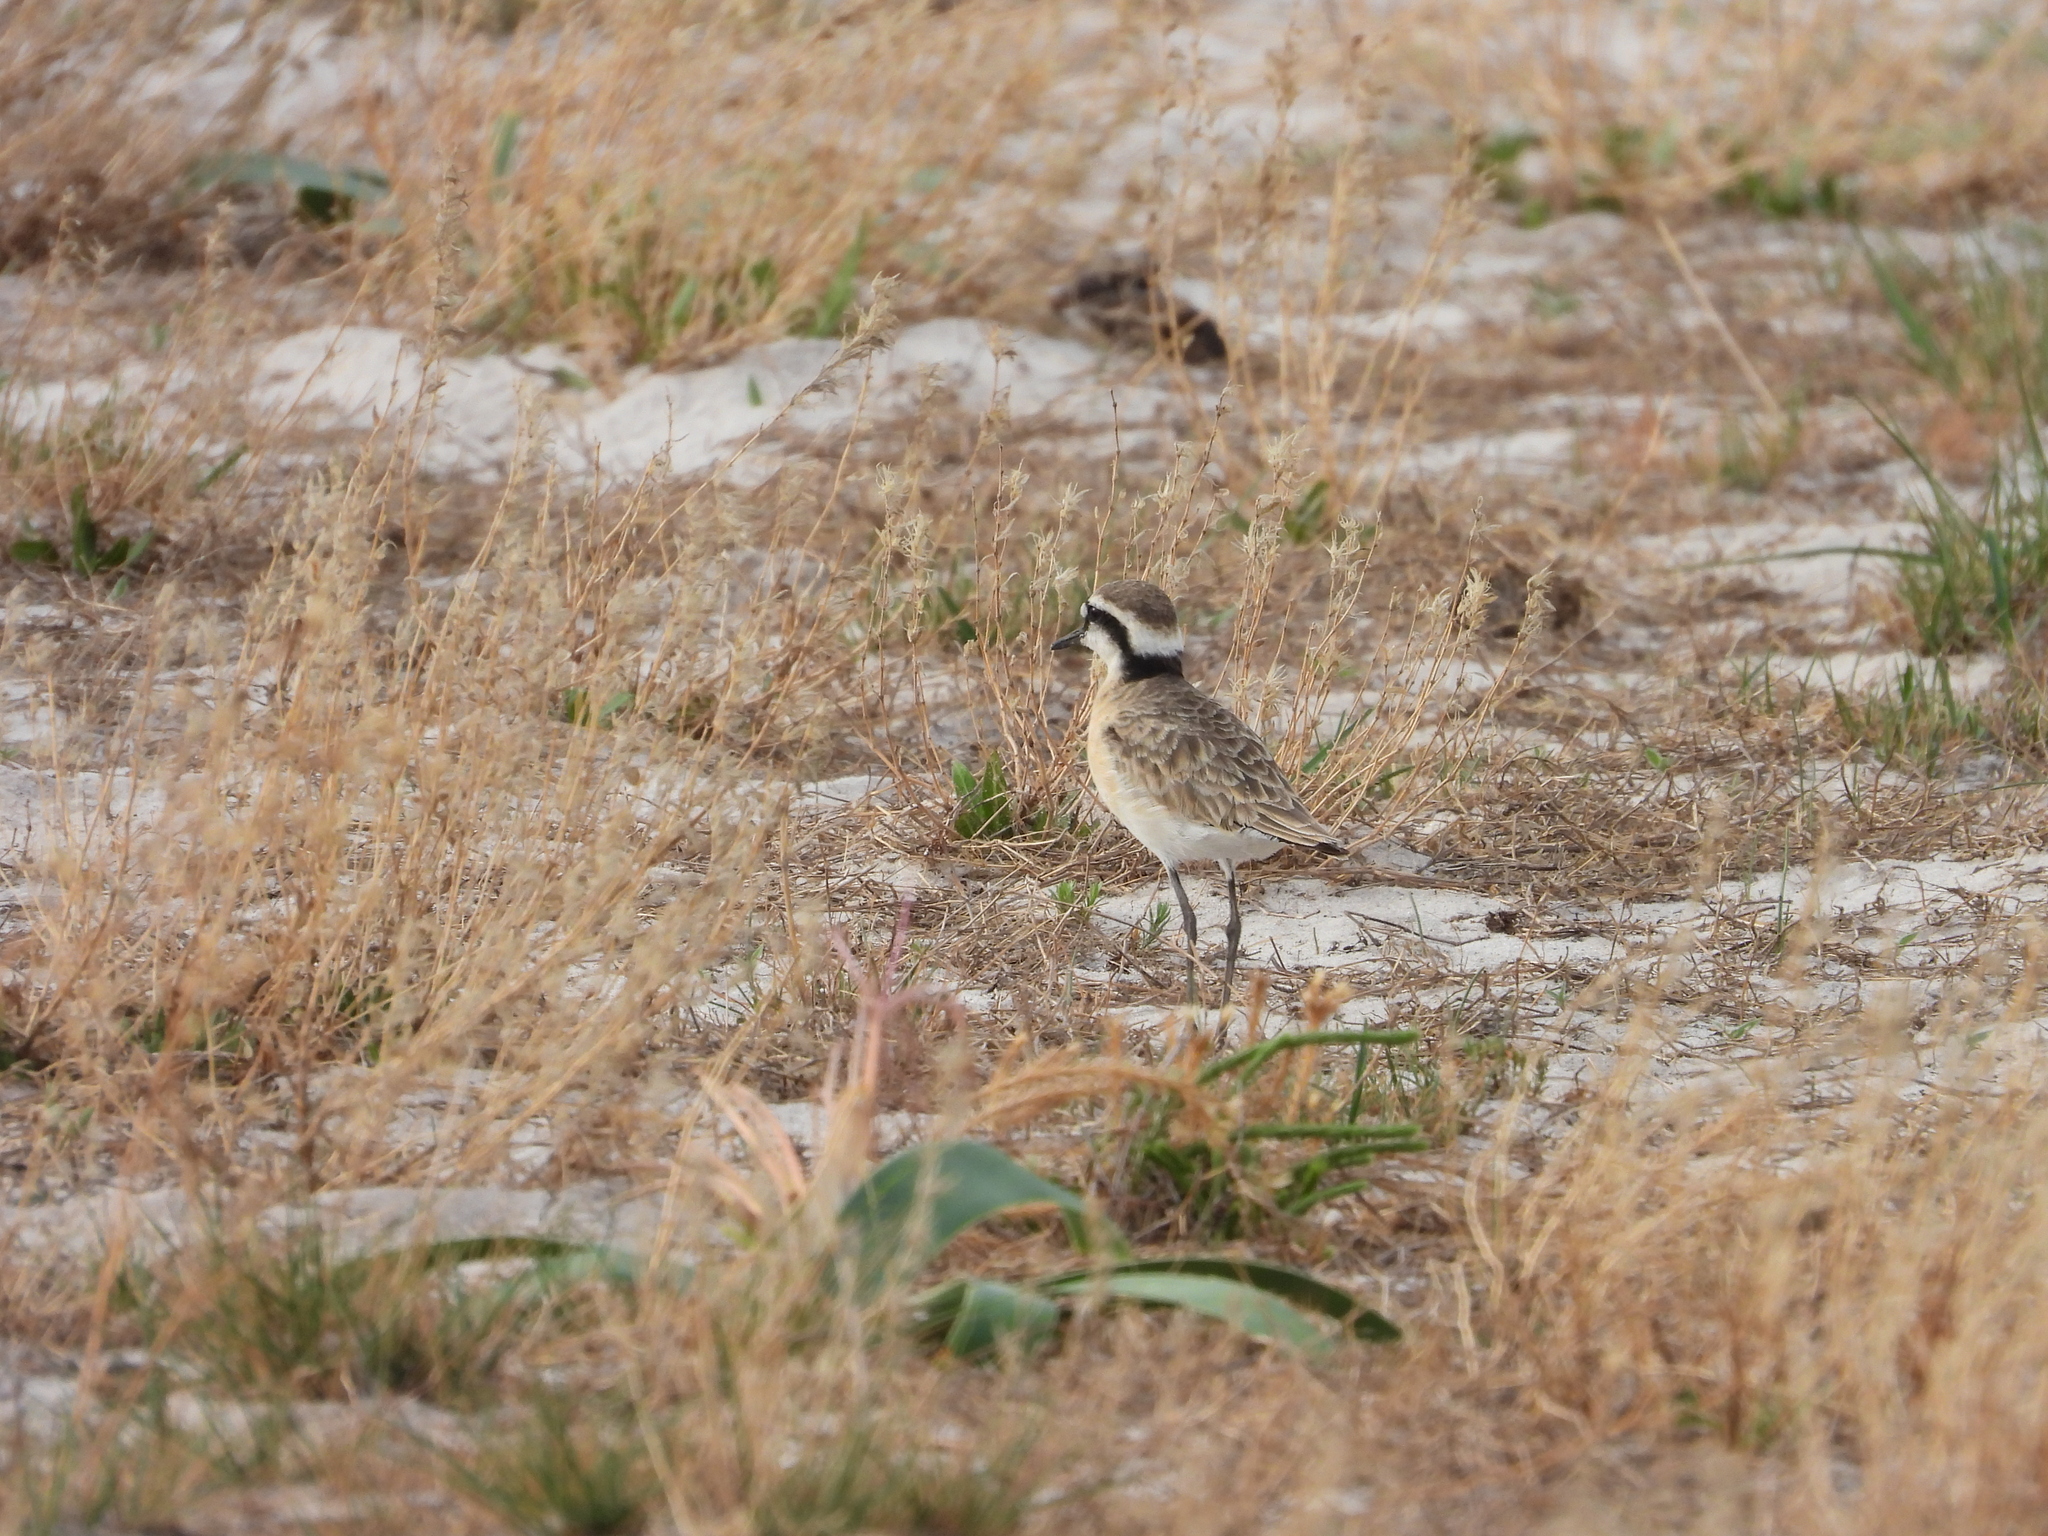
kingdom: Animalia
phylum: Chordata
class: Aves
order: Charadriiformes
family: Charadriidae
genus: Anarhynchus
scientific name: Anarhynchus
